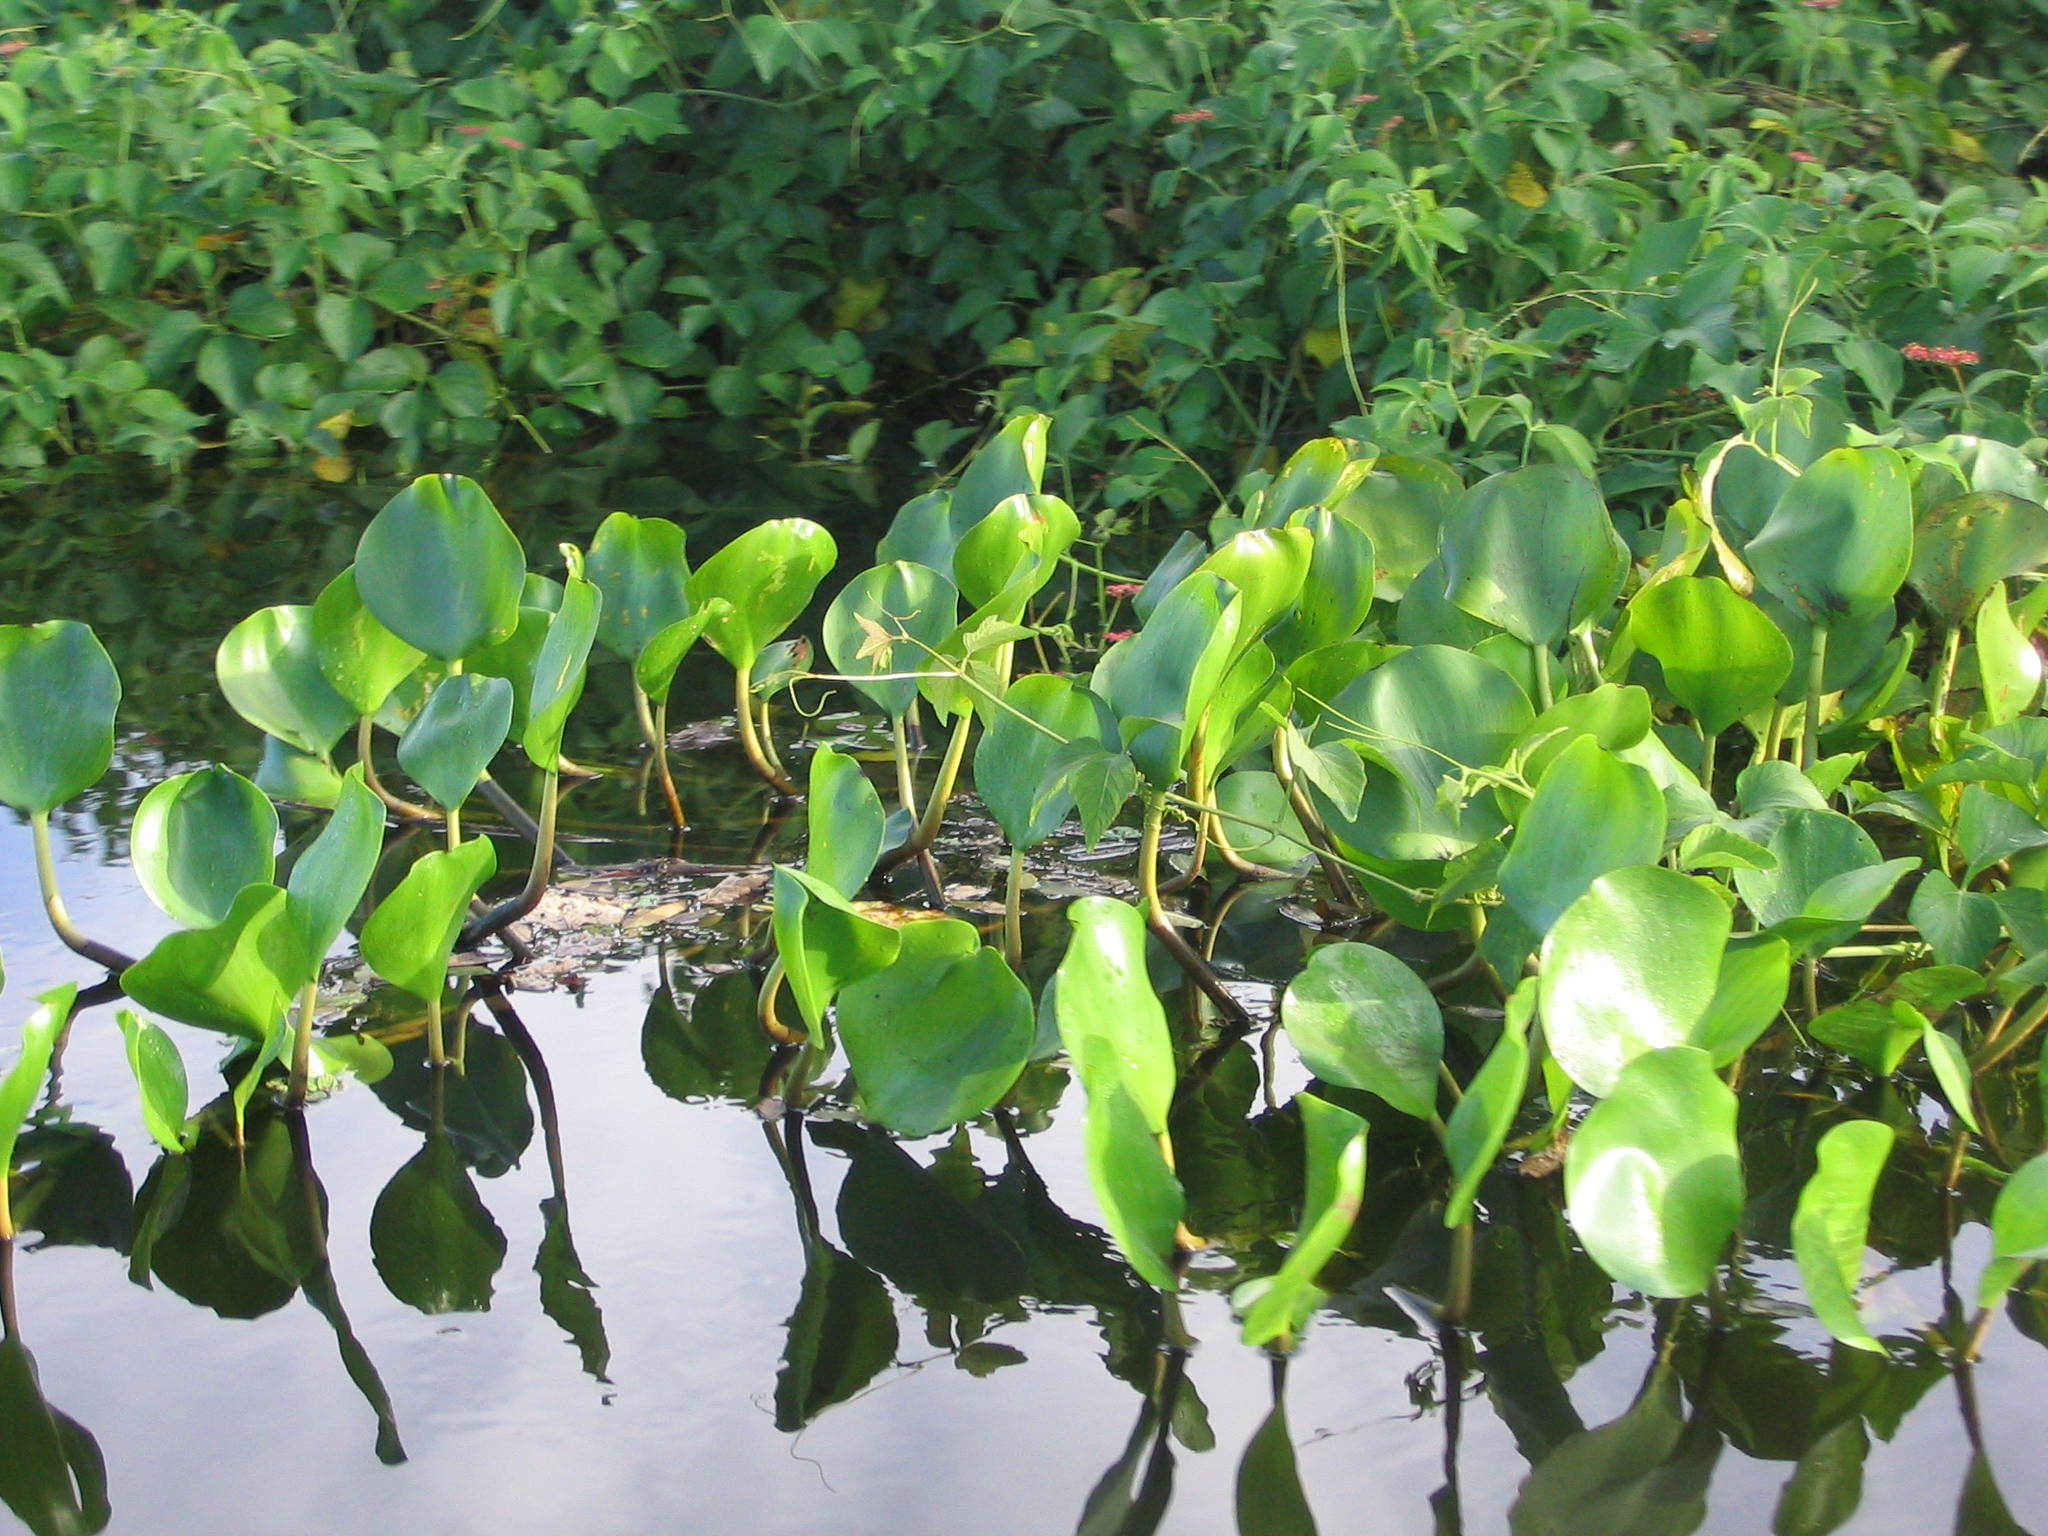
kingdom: Plantae
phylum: Tracheophyta
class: Liliopsida
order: Commelinales
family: Pontederiaceae
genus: Pontederia
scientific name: Pontederia crassipes
